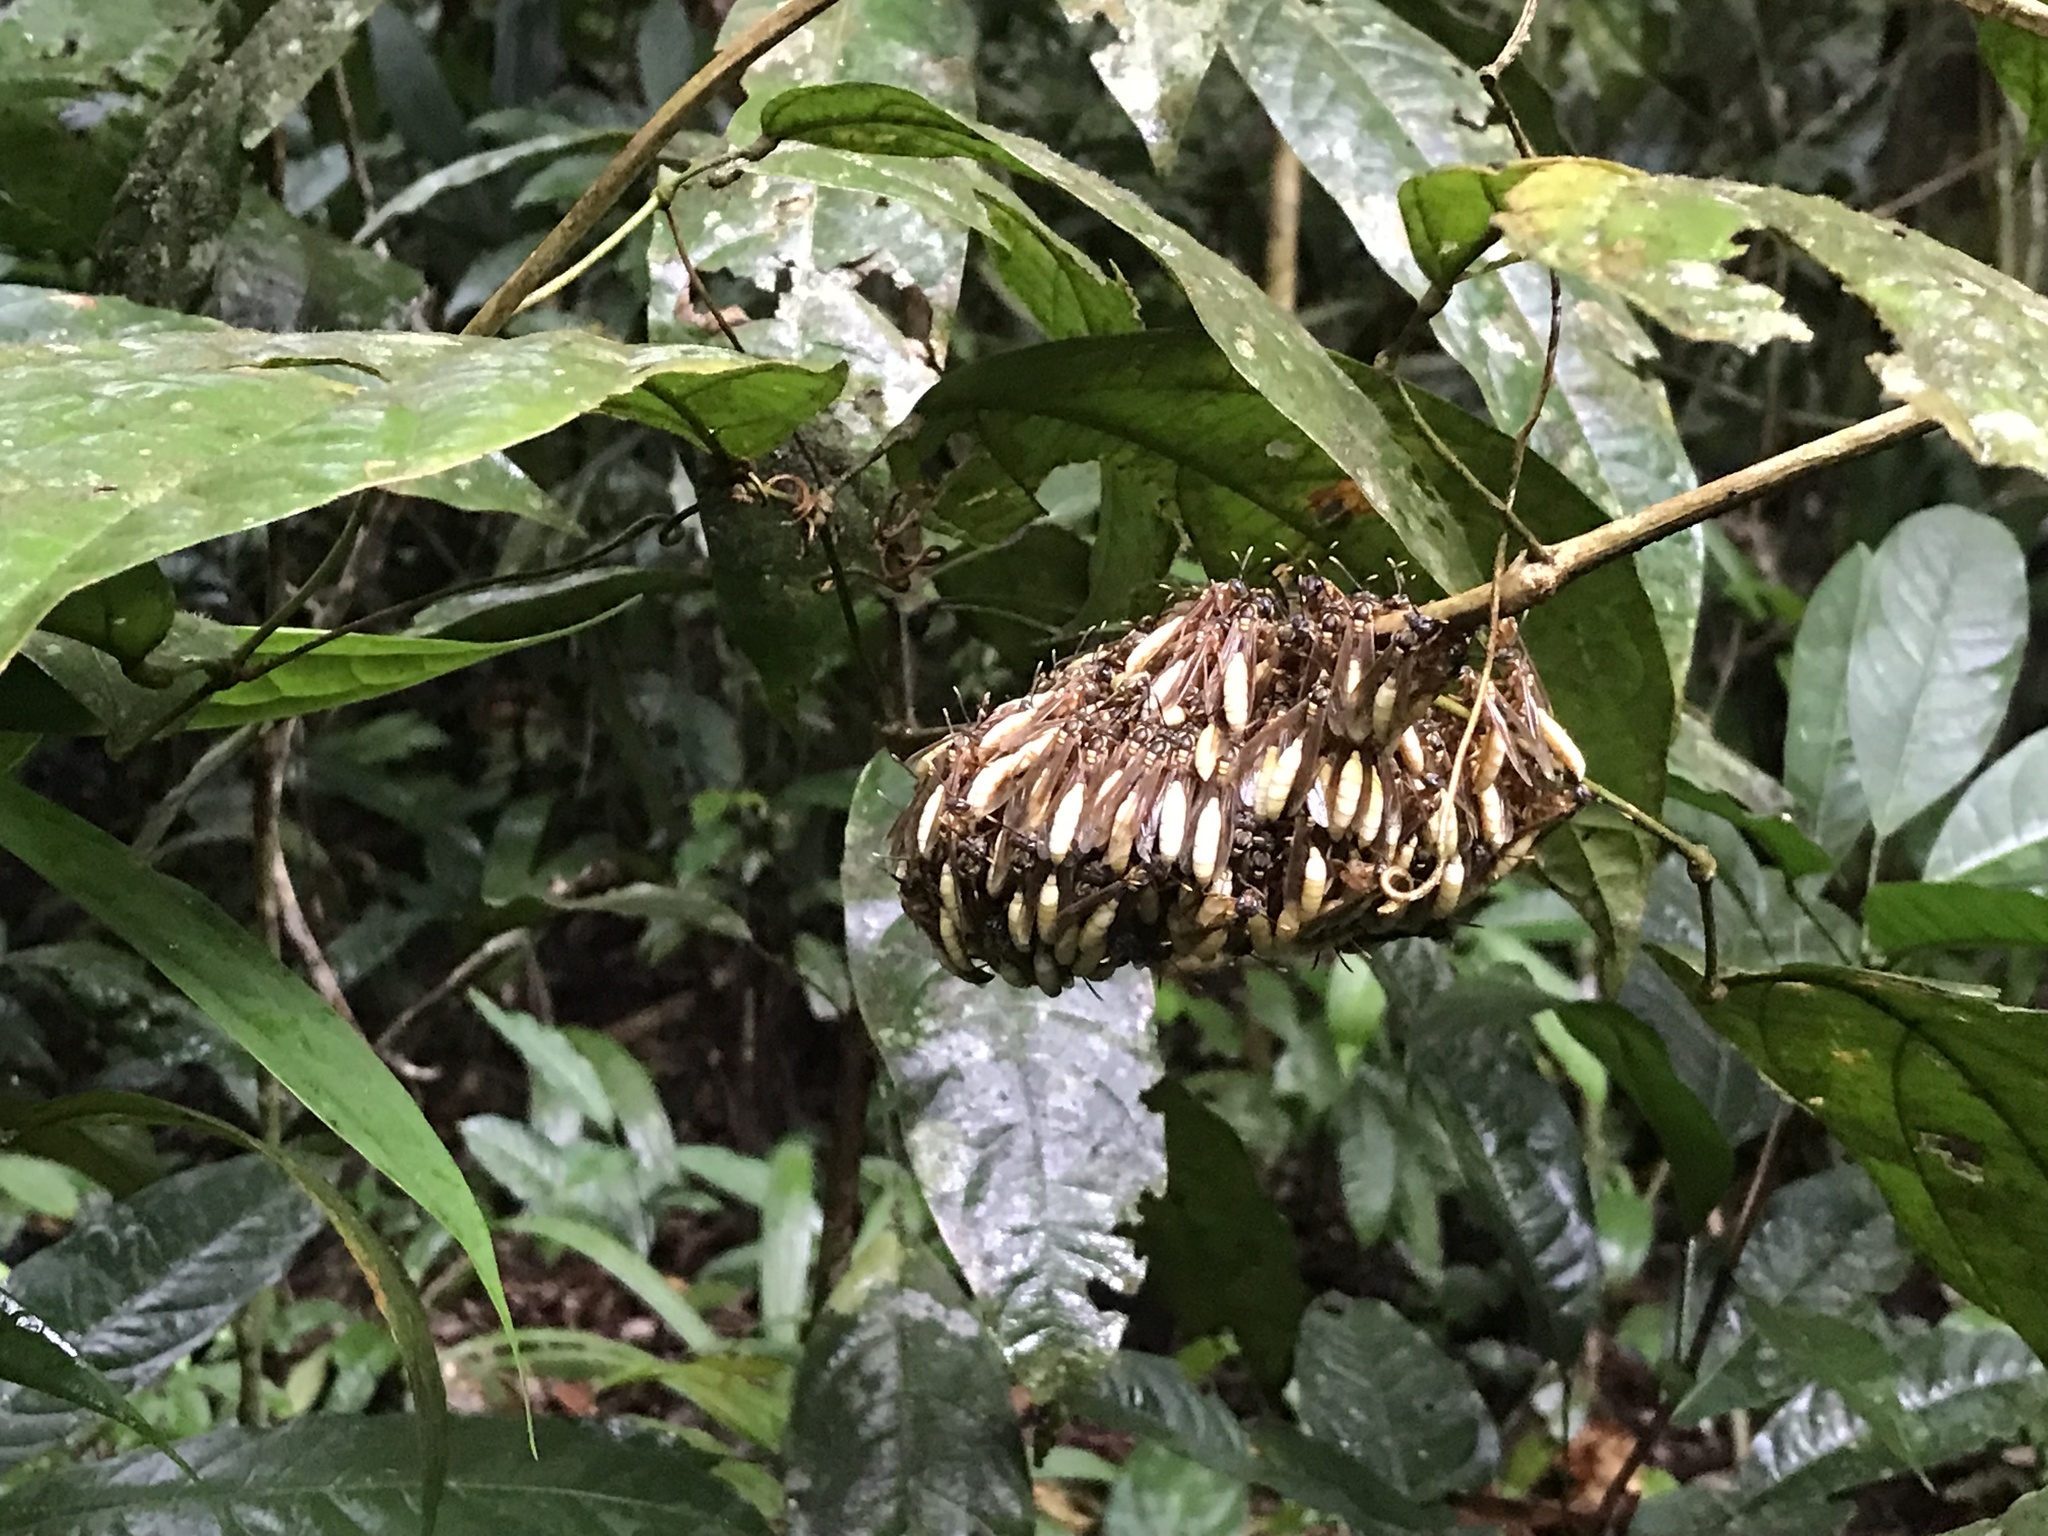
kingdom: Animalia
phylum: Arthropoda
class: Insecta
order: Hymenoptera
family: Vespidae
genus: Apoica
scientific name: Apoica pallens
